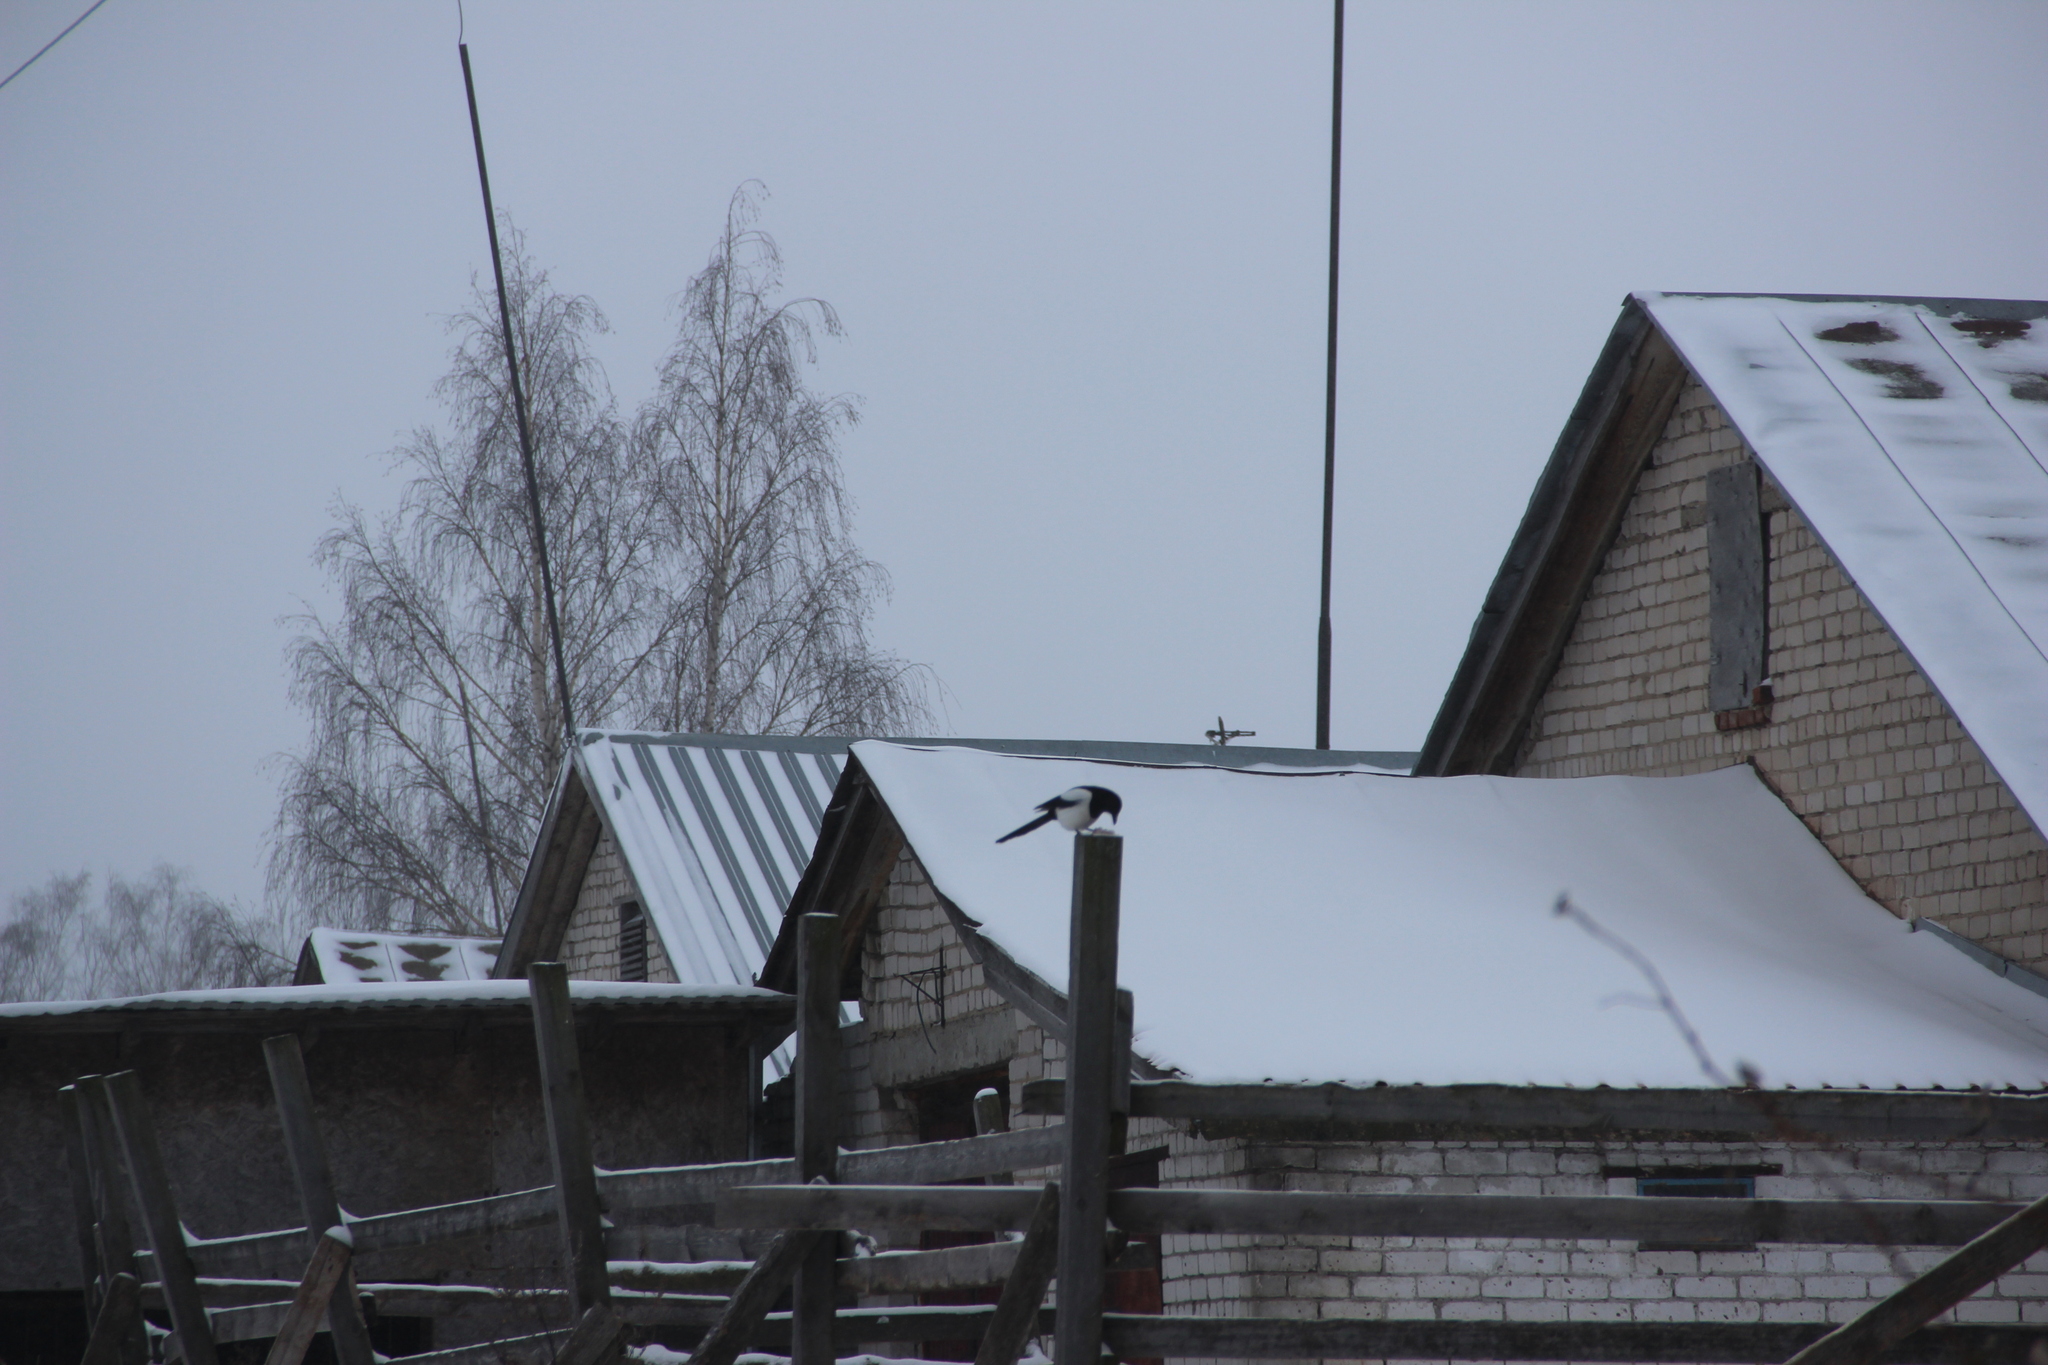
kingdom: Animalia
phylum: Chordata
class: Aves
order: Passeriformes
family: Corvidae
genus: Pica
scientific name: Pica pica
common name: Eurasian magpie
